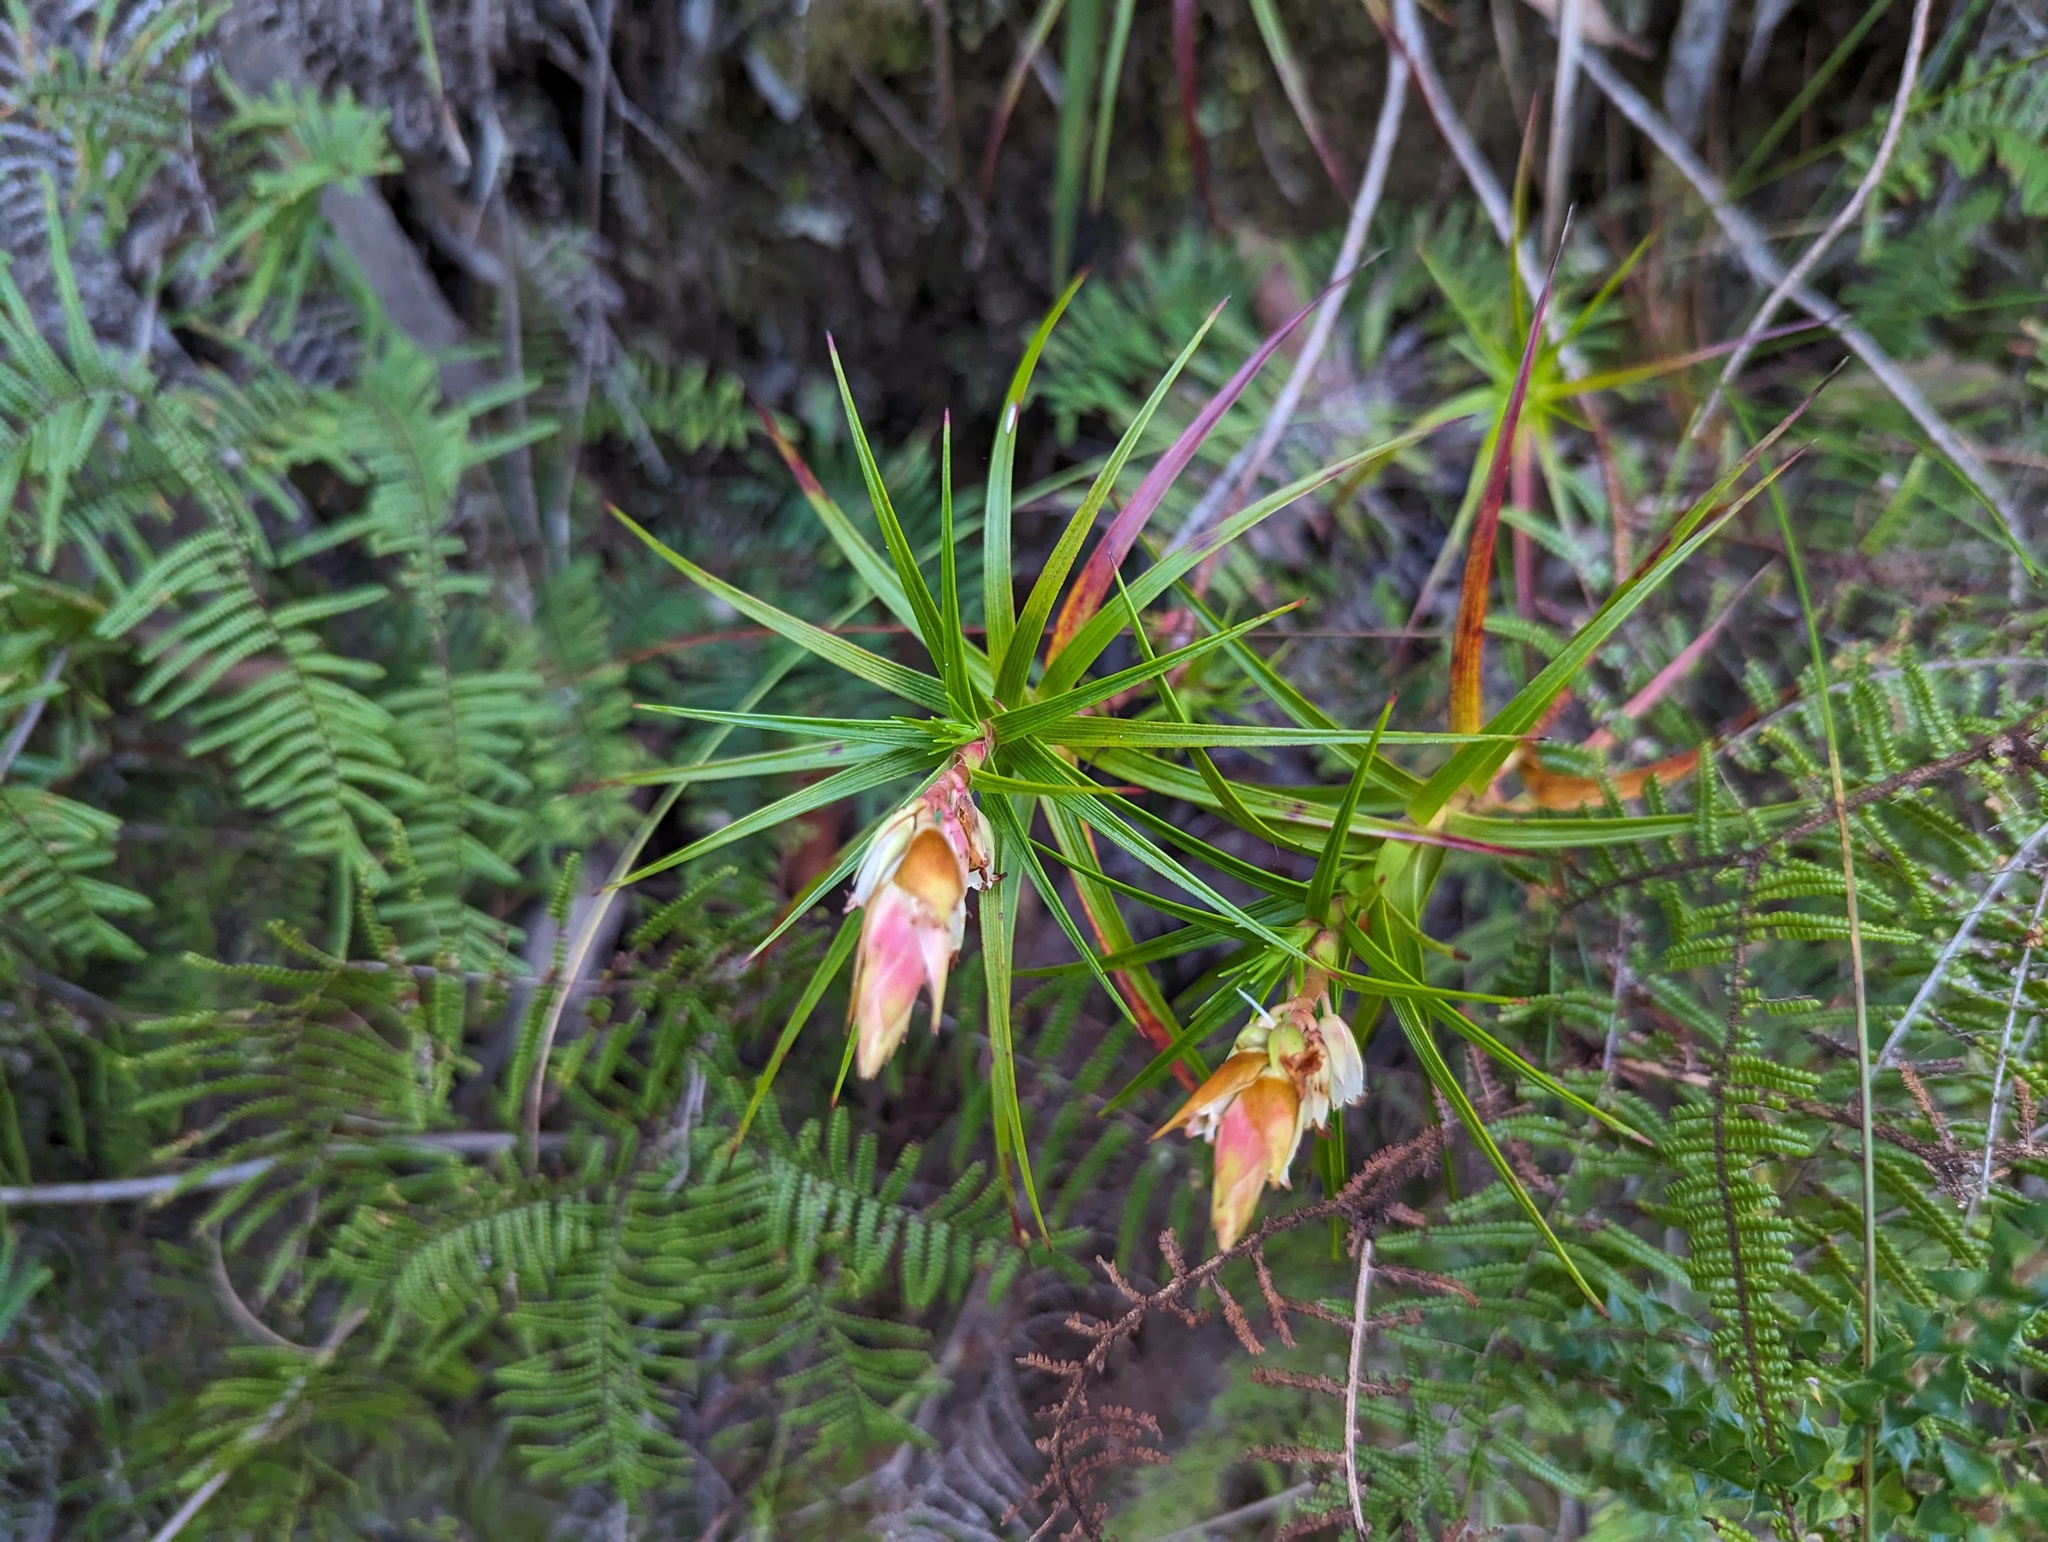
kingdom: Plantae
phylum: Tracheophyta
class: Magnoliopsida
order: Ericales
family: Ericaceae
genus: Dracophyllum
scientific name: Dracophyllum secundum
